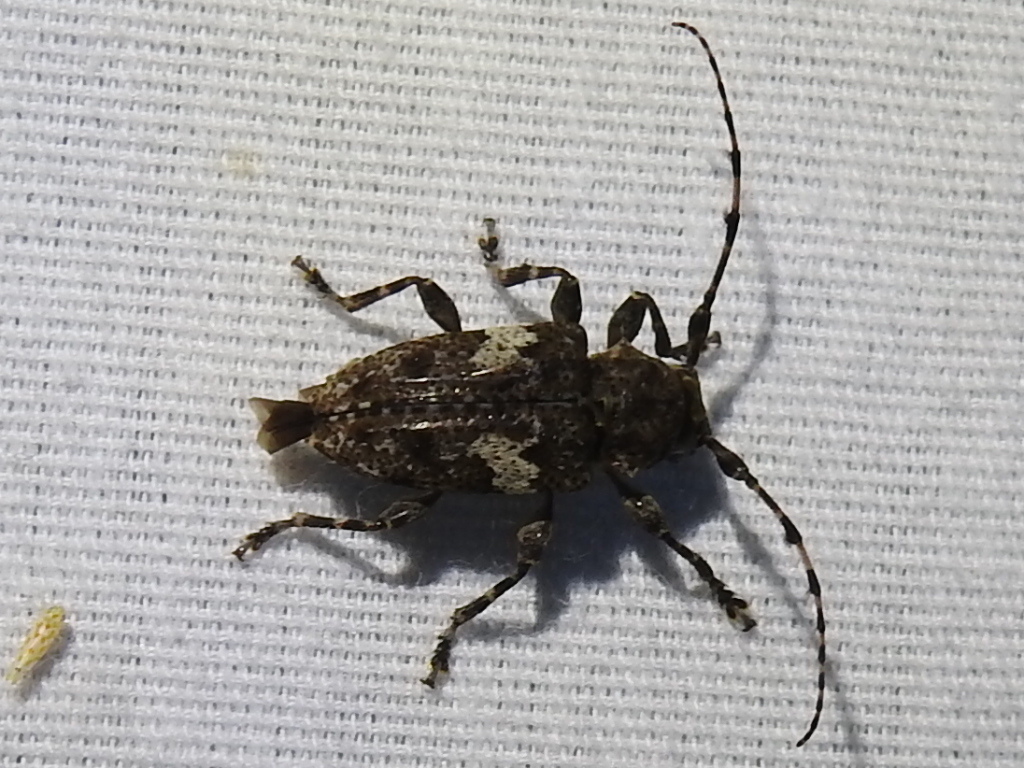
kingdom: Animalia
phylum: Arthropoda
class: Insecta
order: Coleoptera
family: Cerambycidae
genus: Acanthoderes
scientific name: Acanthoderes quadrigibba
